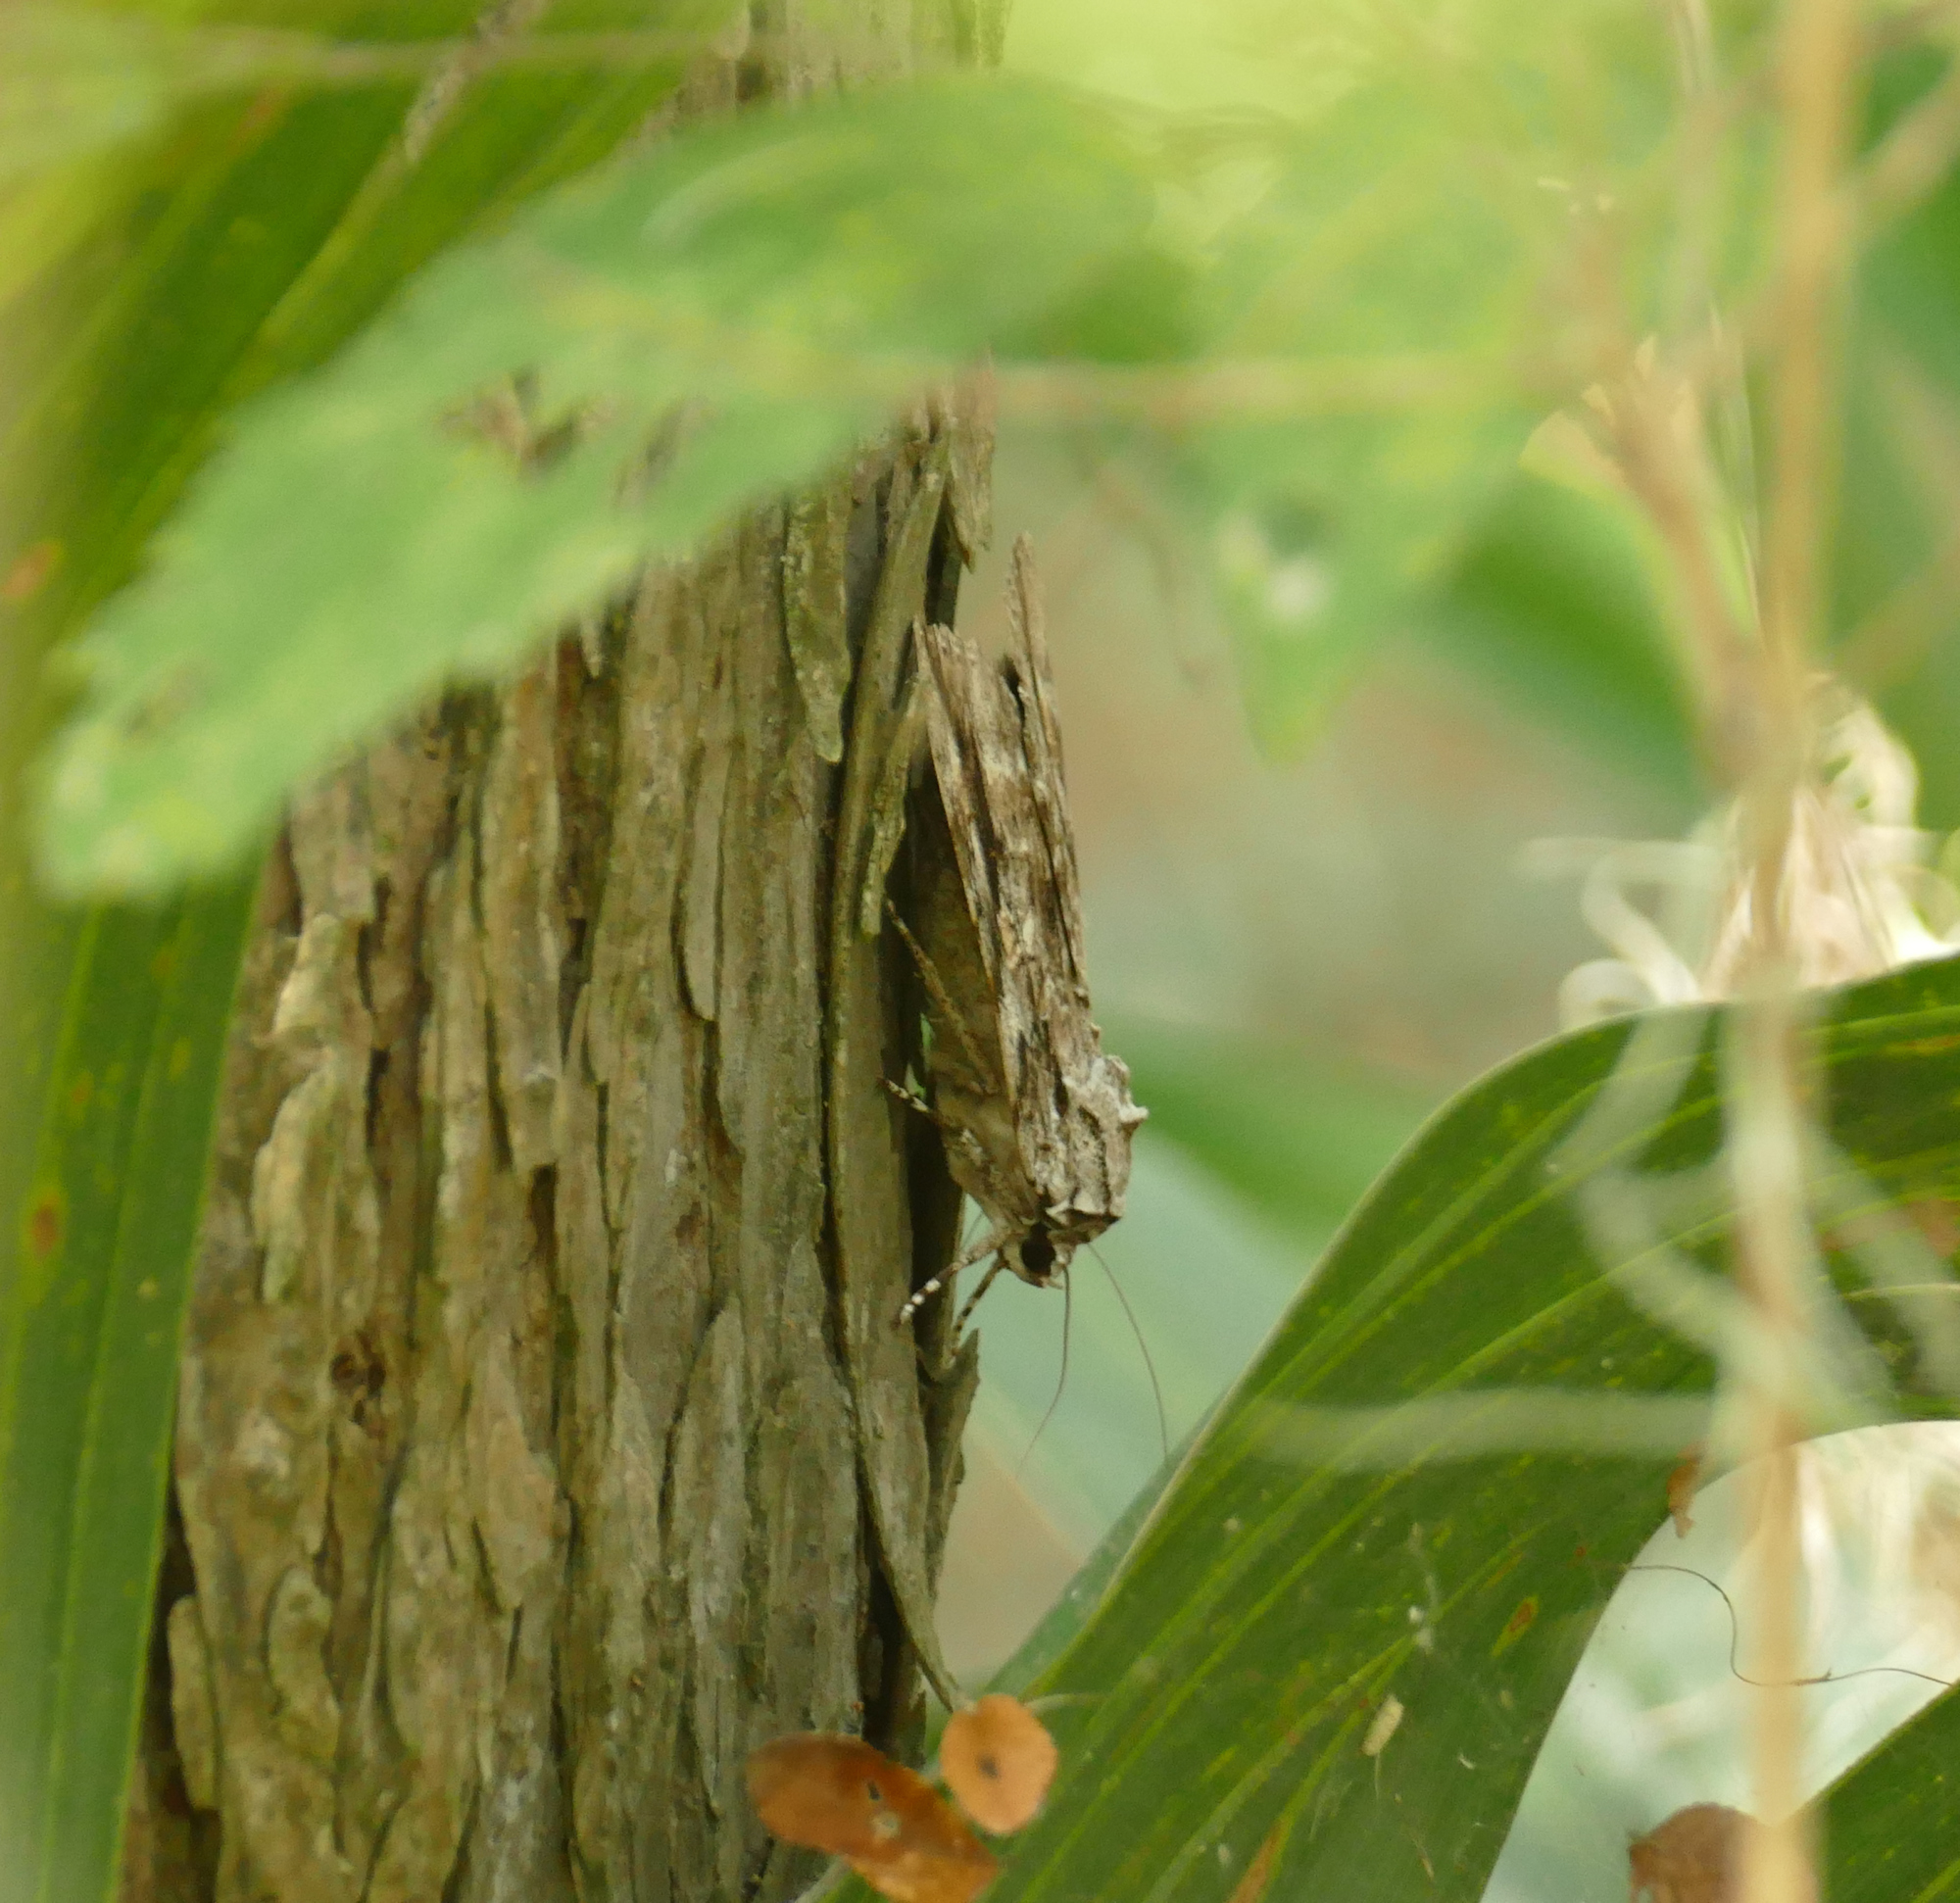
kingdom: Animalia
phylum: Arthropoda
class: Insecta
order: Lepidoptera
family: Erebidae
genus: Catocala
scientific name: Catocala maestosa
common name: Sad underwing
